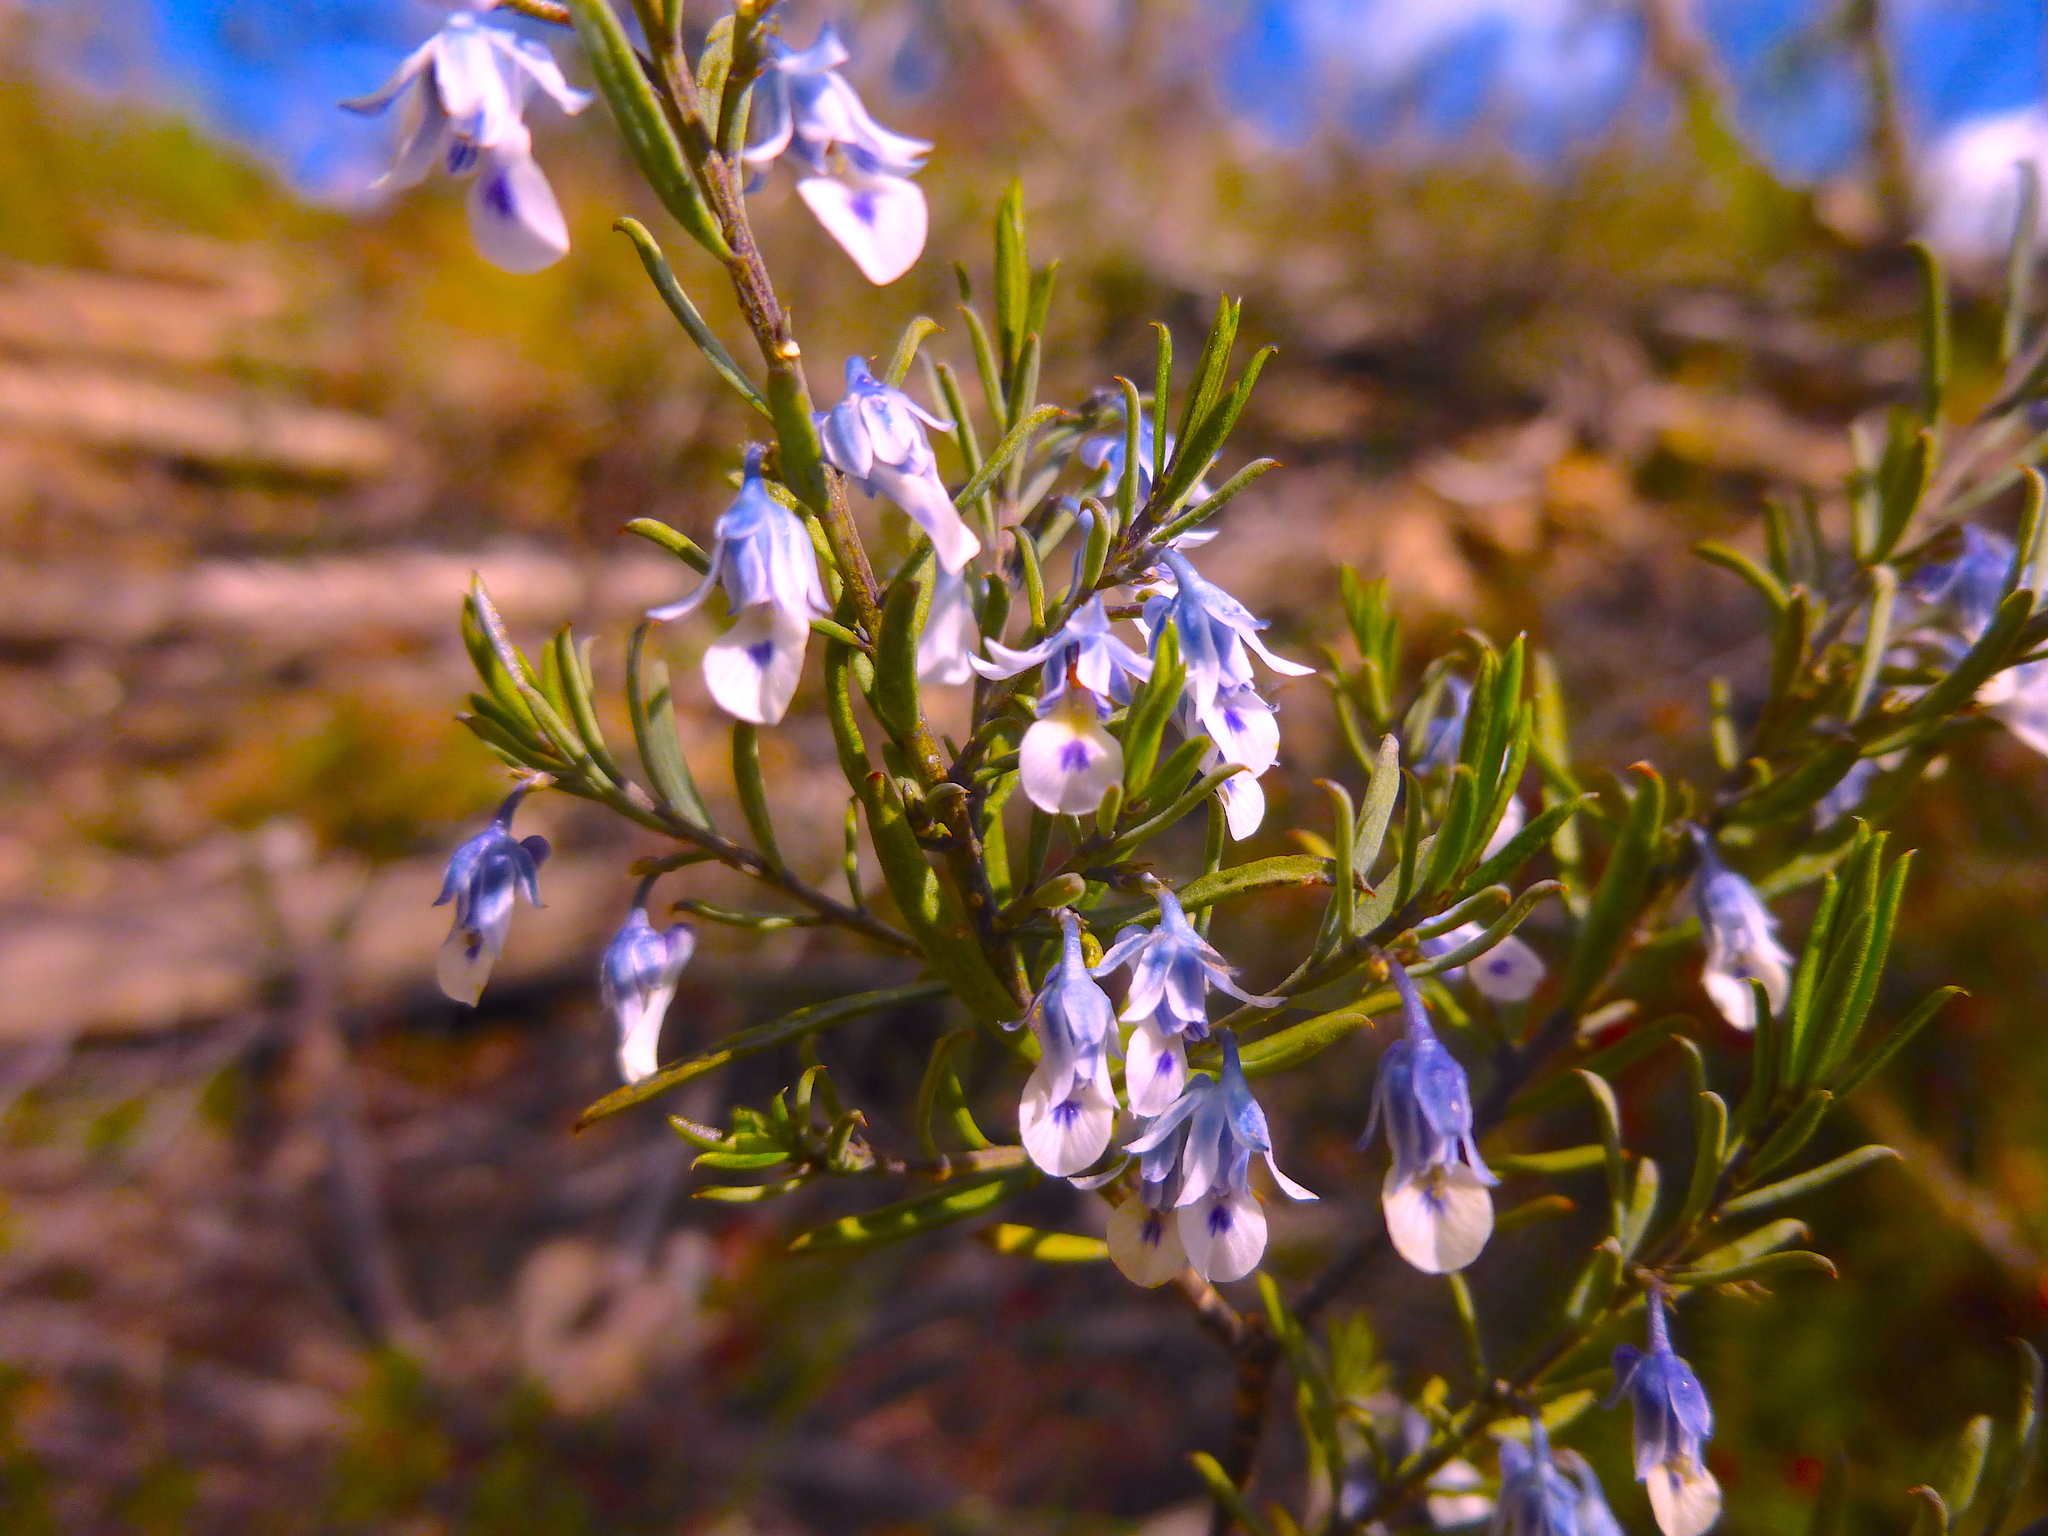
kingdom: Plantae
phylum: Tracheophyta
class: Magnoliopsida
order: Malpighiales
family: Violaceae
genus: Pigea
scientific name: Pigea floribunda
